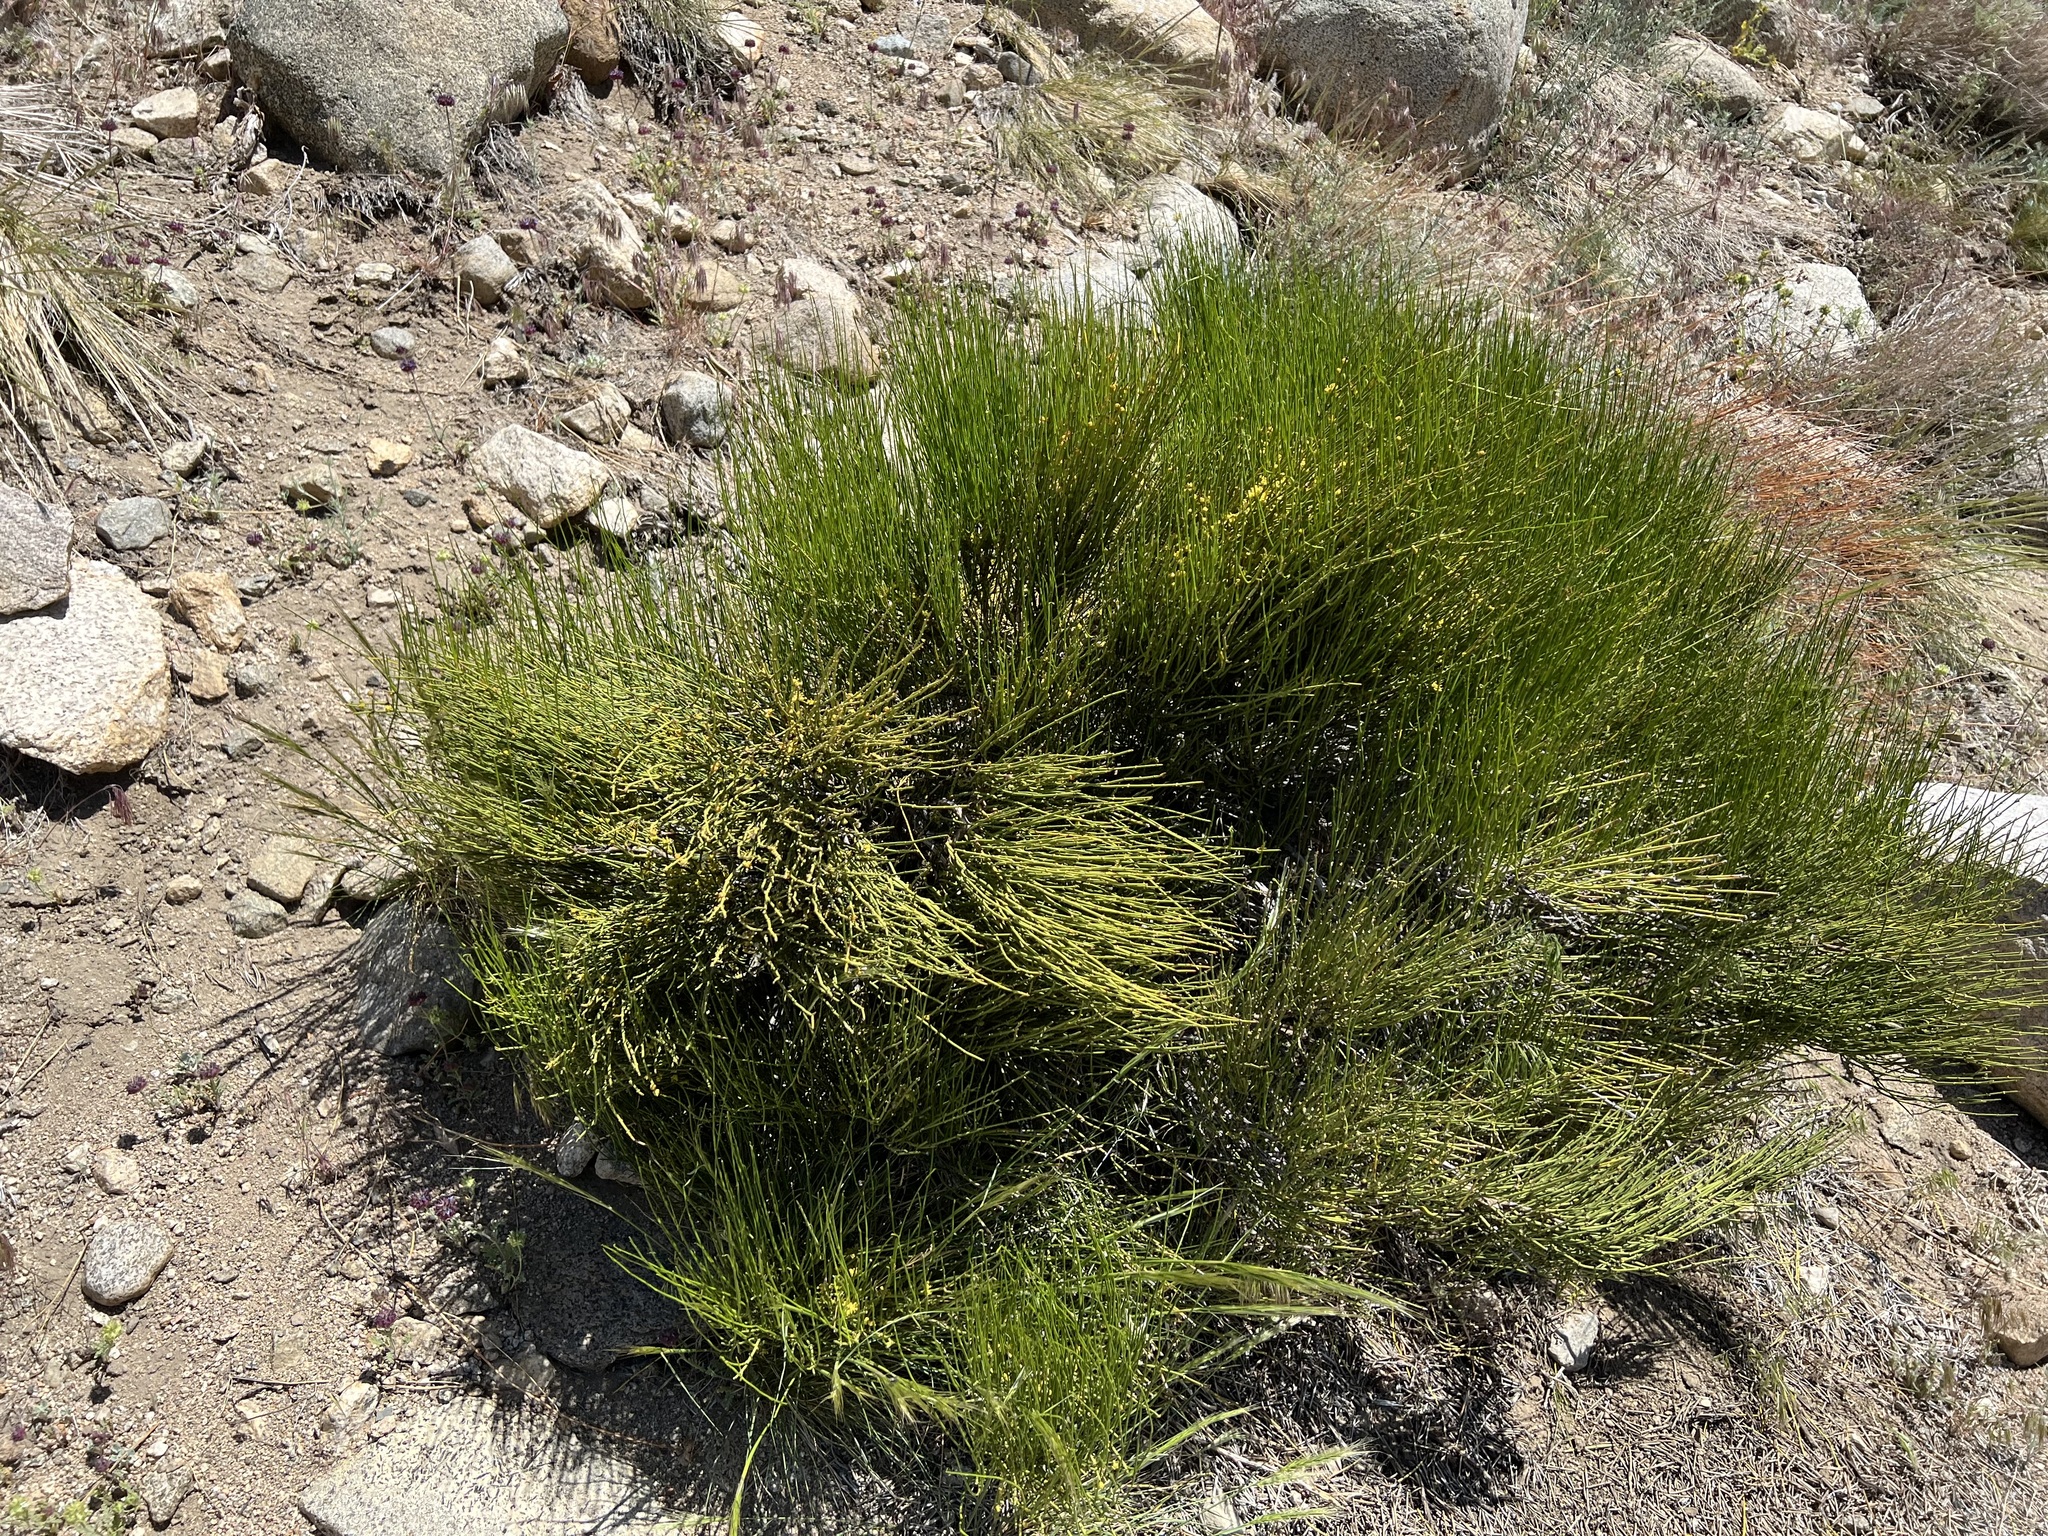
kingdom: Plantae
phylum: Tracheophyta
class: Gnetopsida
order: Ephedrales
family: Ephedraceae
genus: Ephedra
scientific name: Ephedra viridis
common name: Green ephedra
